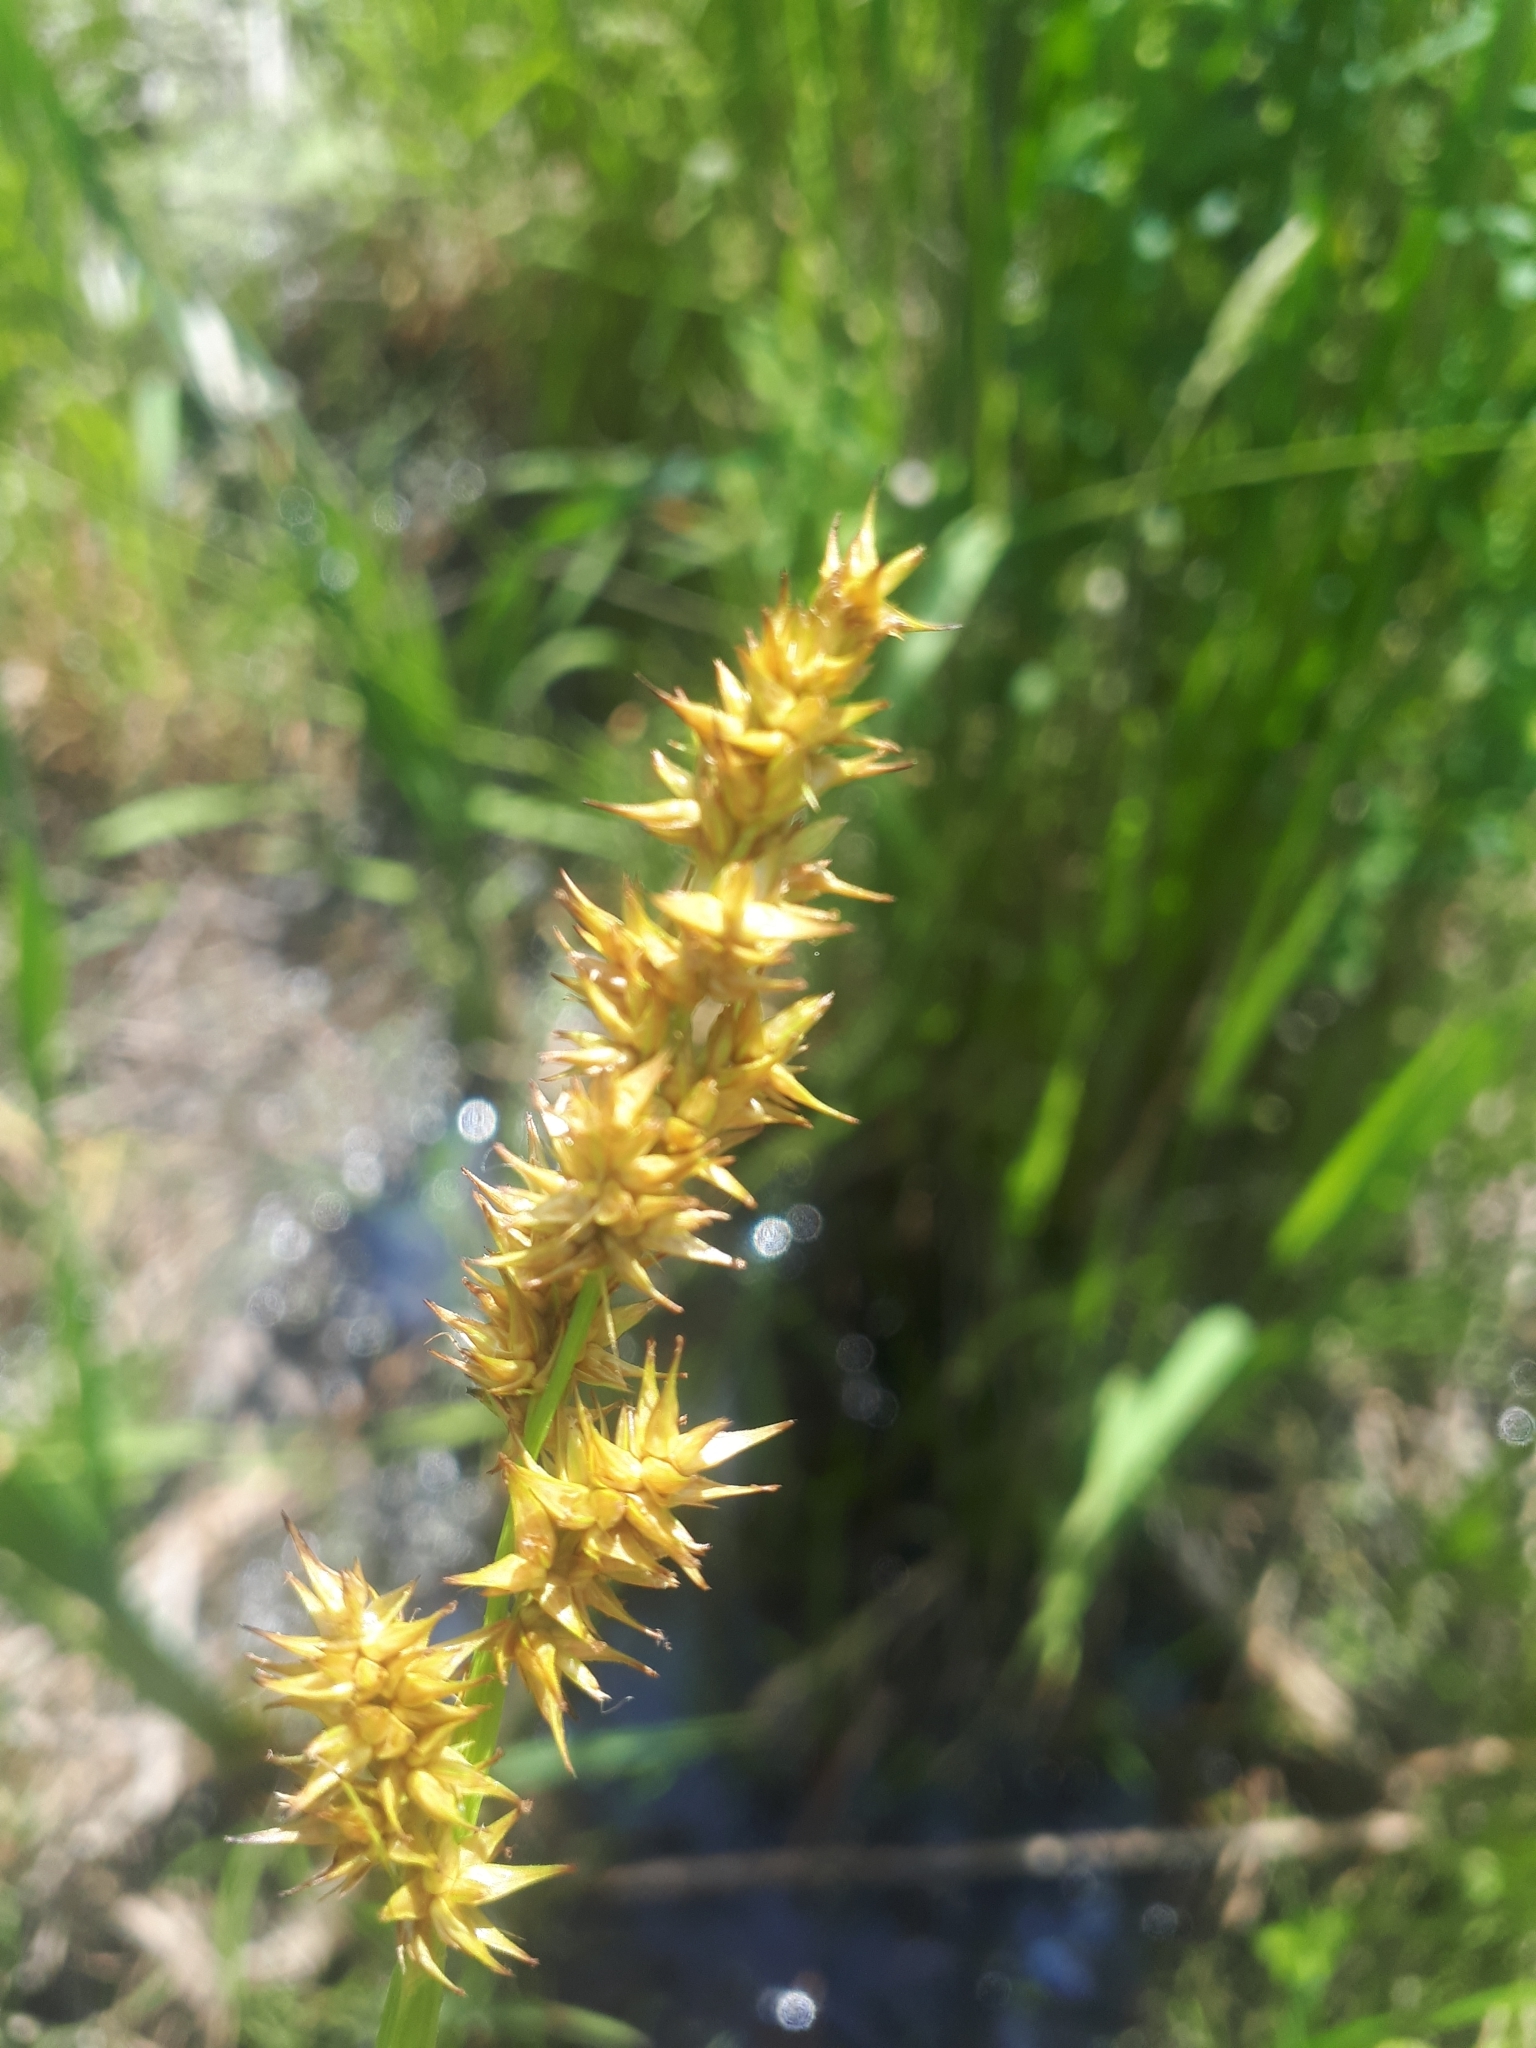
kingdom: Plantae
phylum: Tracheophyta
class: Liliopsida
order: Poales
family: Cyperaceae
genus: Carex
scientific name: Carex stipata
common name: Awl-fruited sedge
